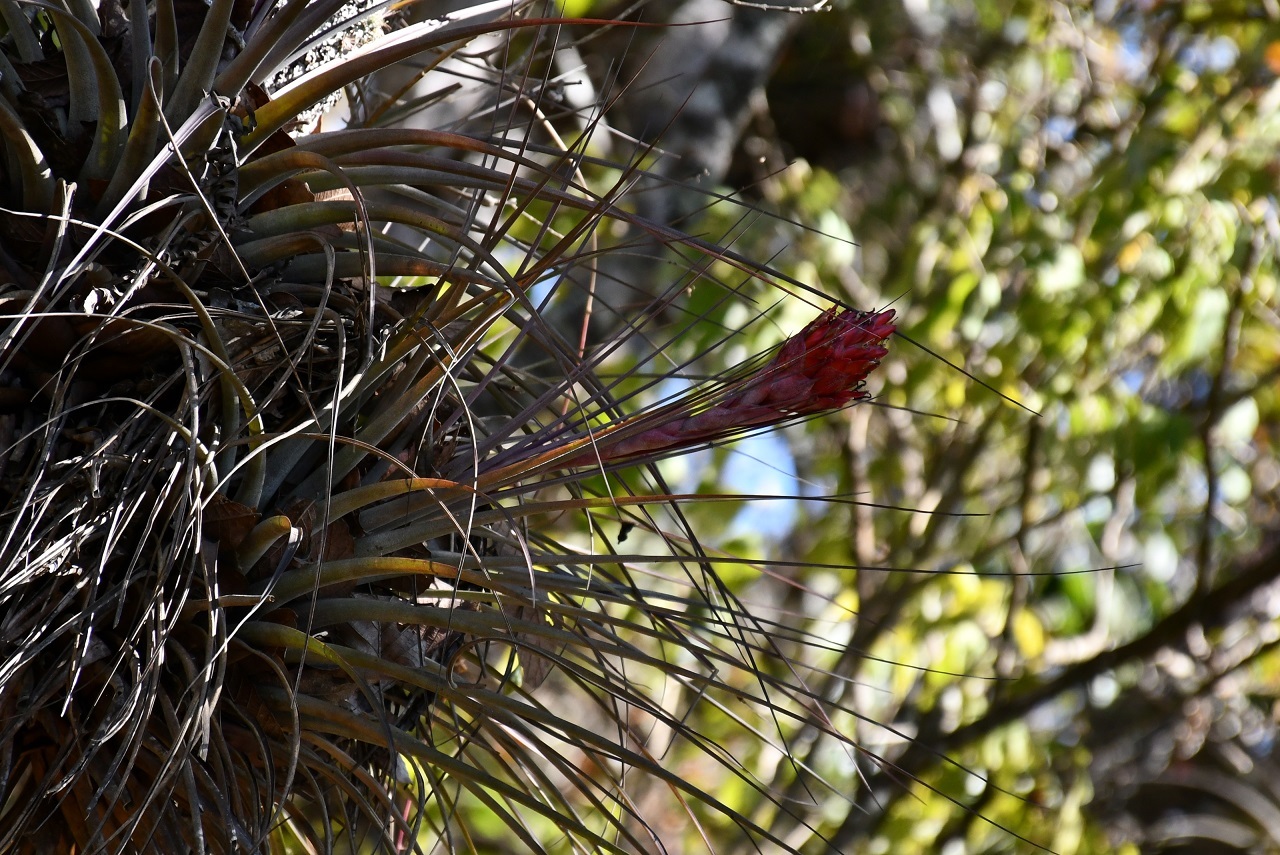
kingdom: Plantae
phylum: Tracheophyta
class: Liliopsida
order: Poales
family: Bromeliaceae
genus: Tillandsia
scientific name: Tillandsia rotundata
